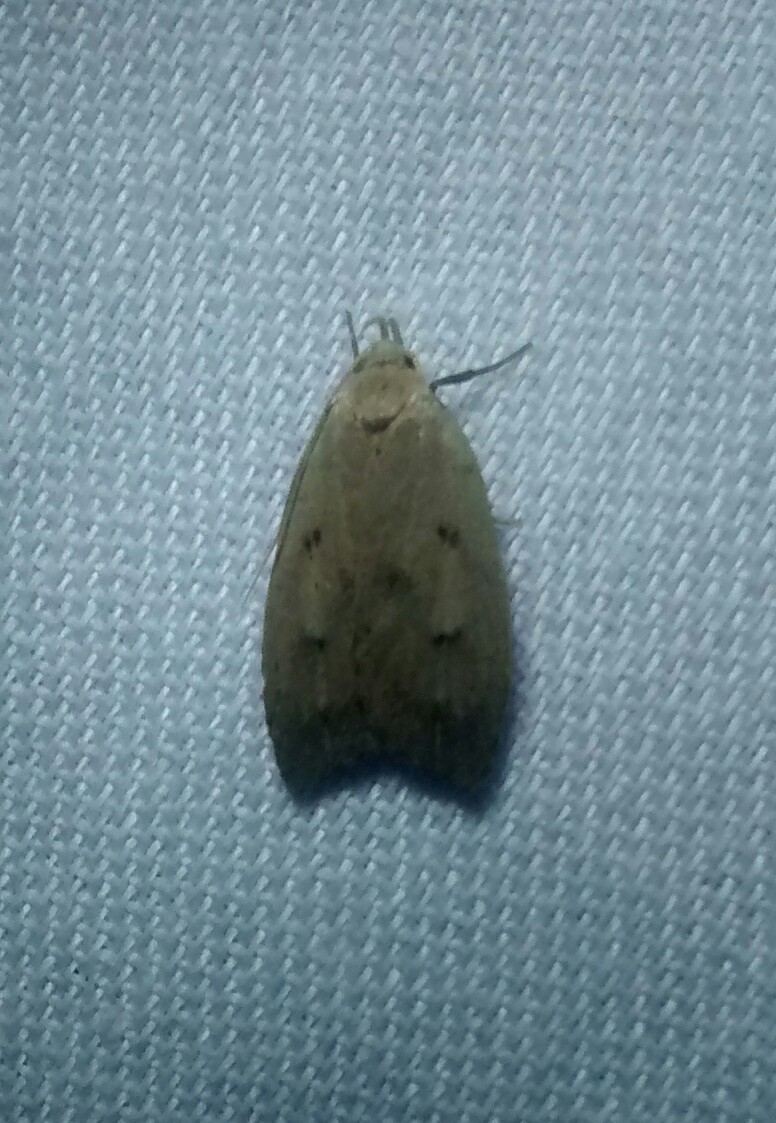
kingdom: Animalia
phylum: Arthropoda
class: Insecta
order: Lepidoptera
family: Peleopodidae
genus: Machimia
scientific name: Machimia tentoriferella
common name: Gold-striped leaftier moth
